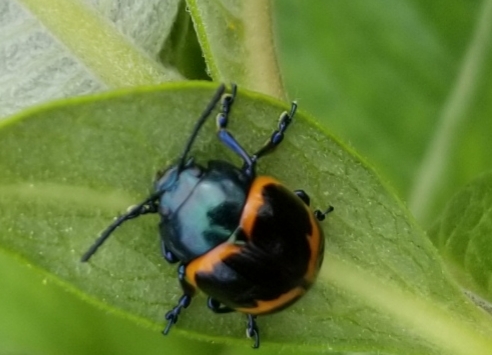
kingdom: Animalia
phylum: Arthropoda
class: Insecta
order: Coleoptera
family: Chrysomelidae
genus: Labidomera
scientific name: Labidomera clivicollis
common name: Swamp milkweed leaf beetle
